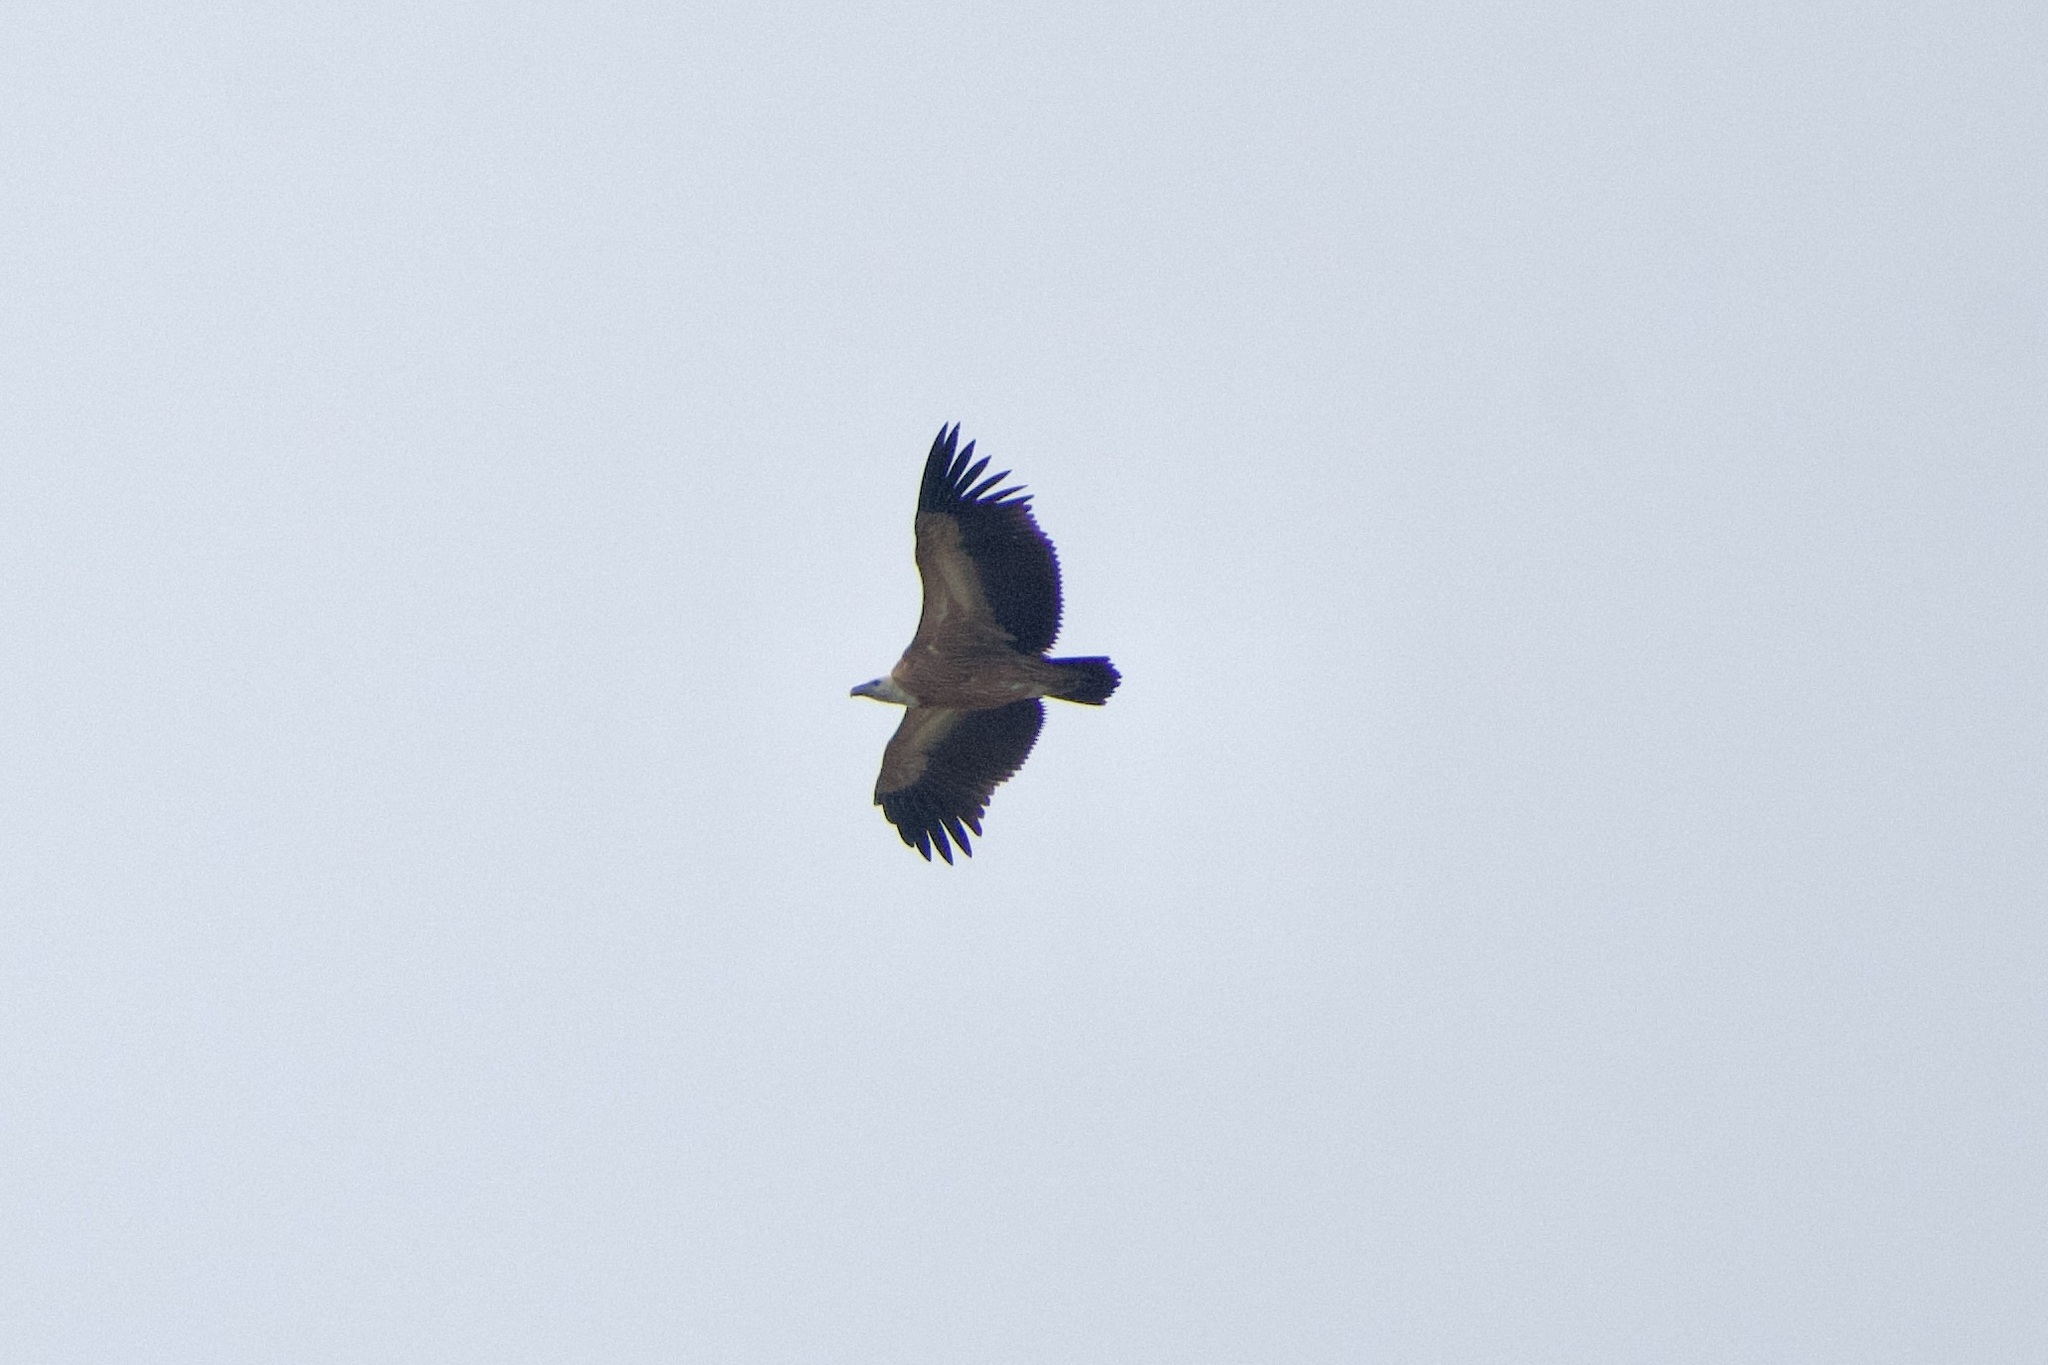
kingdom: Animalia
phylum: Chordata
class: Aves
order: Accipitriformes
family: Accipitridae
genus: Gyps
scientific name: Gyps fulvus
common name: Griffon vulture
